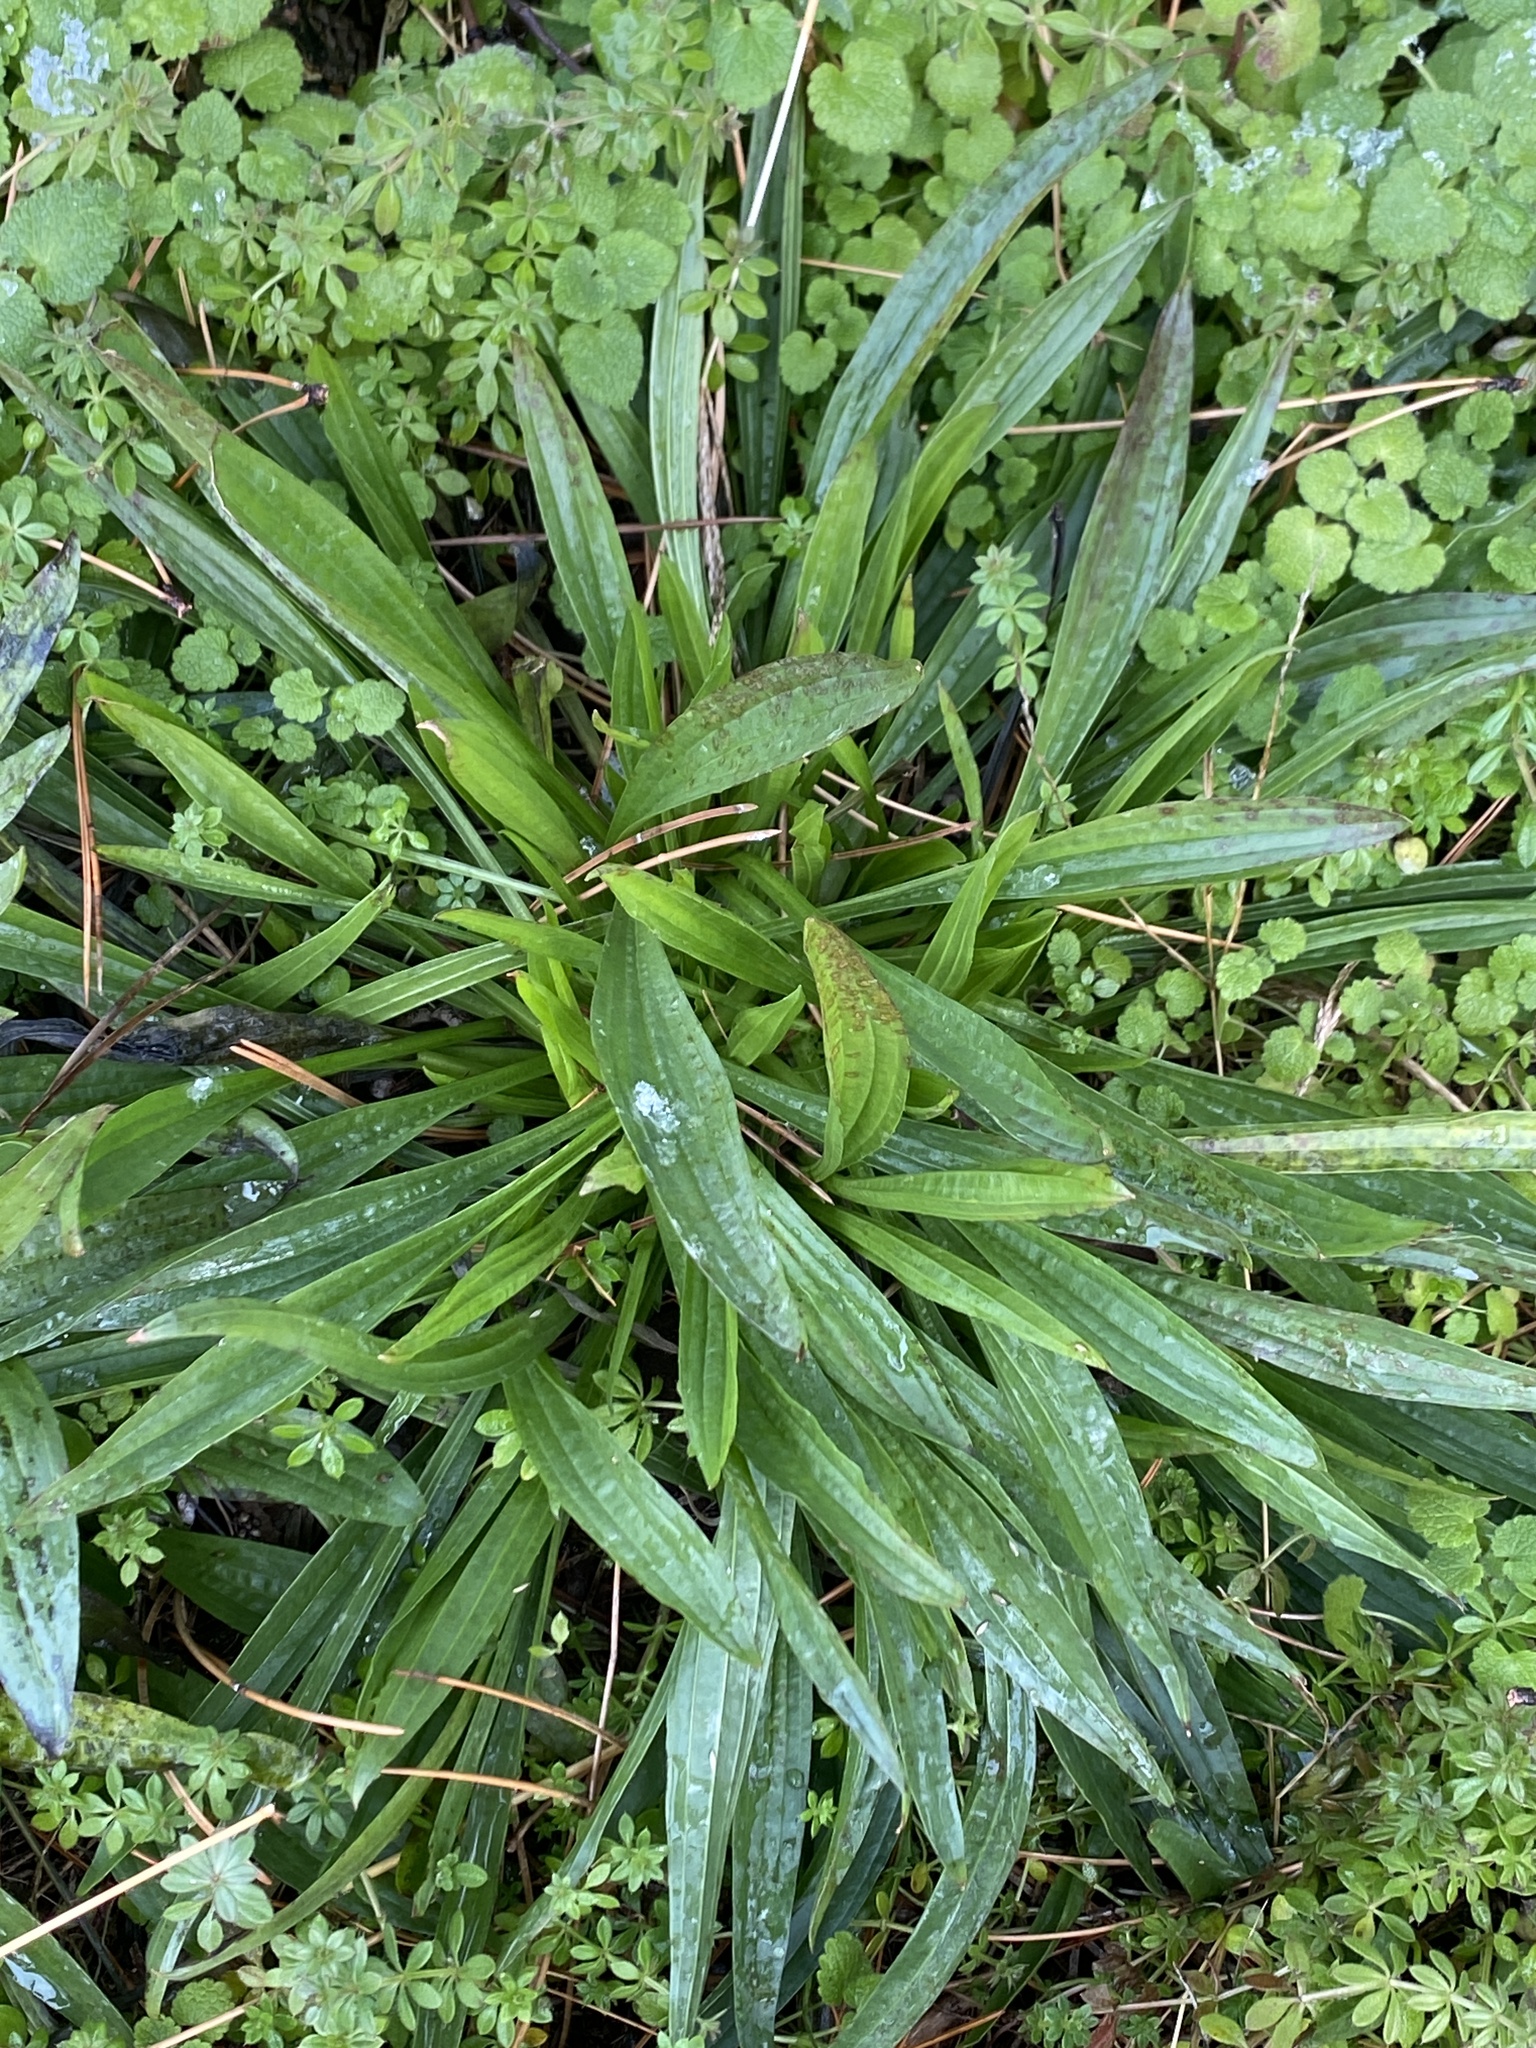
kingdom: Plantae
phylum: Tracheophyta
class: Magnoliopsida
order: Lamiales
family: Plantaginaceae
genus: Plantago
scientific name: Plantago lanceolata
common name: Ribwort plantain
